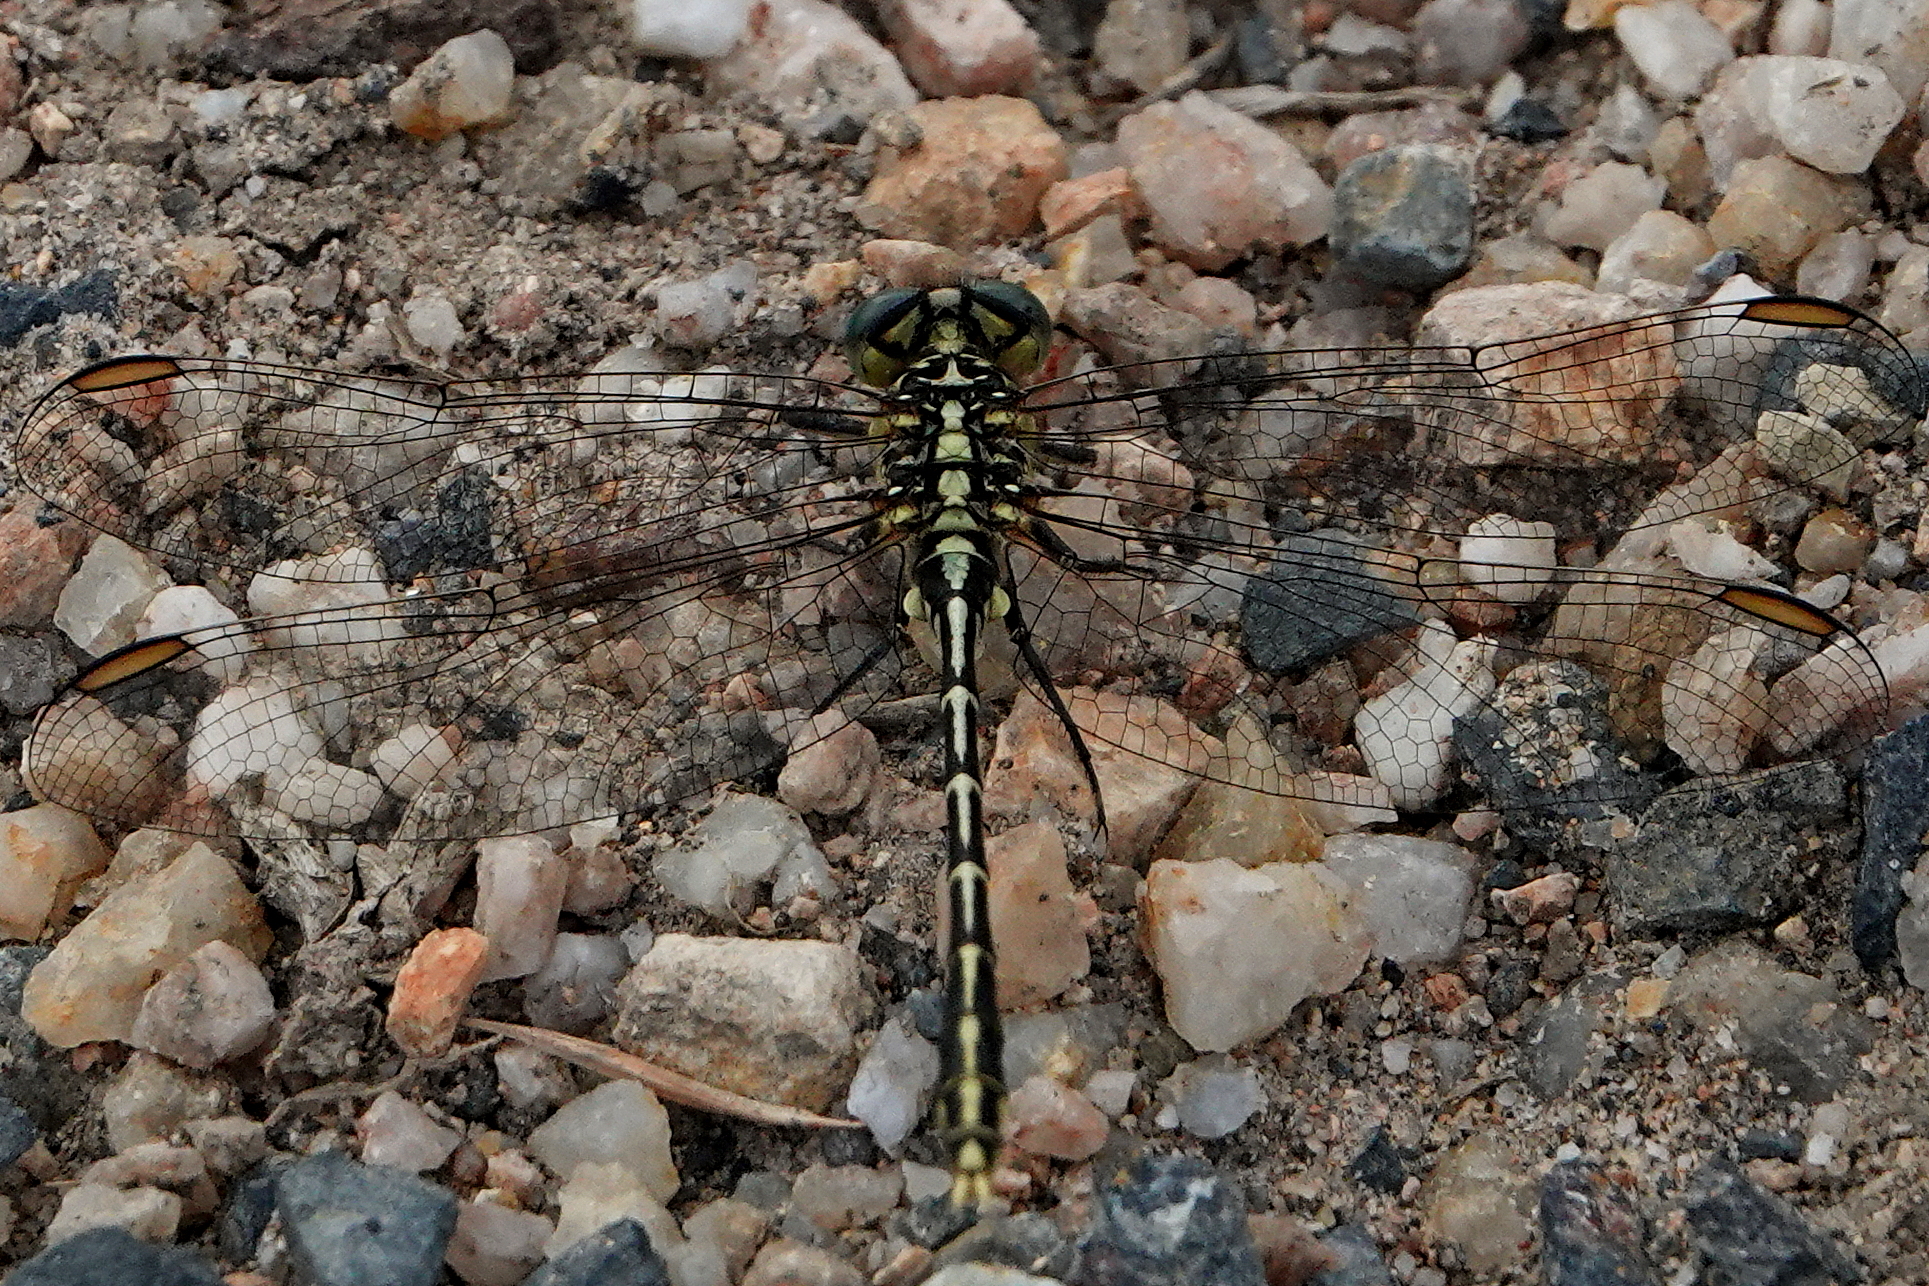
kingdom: Animalia
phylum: Arthropoda
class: Insecta
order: Odonata
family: Gomphidae
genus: Austrogomphus
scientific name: Austrogomphus guerini
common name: Yellow-striped hunter
